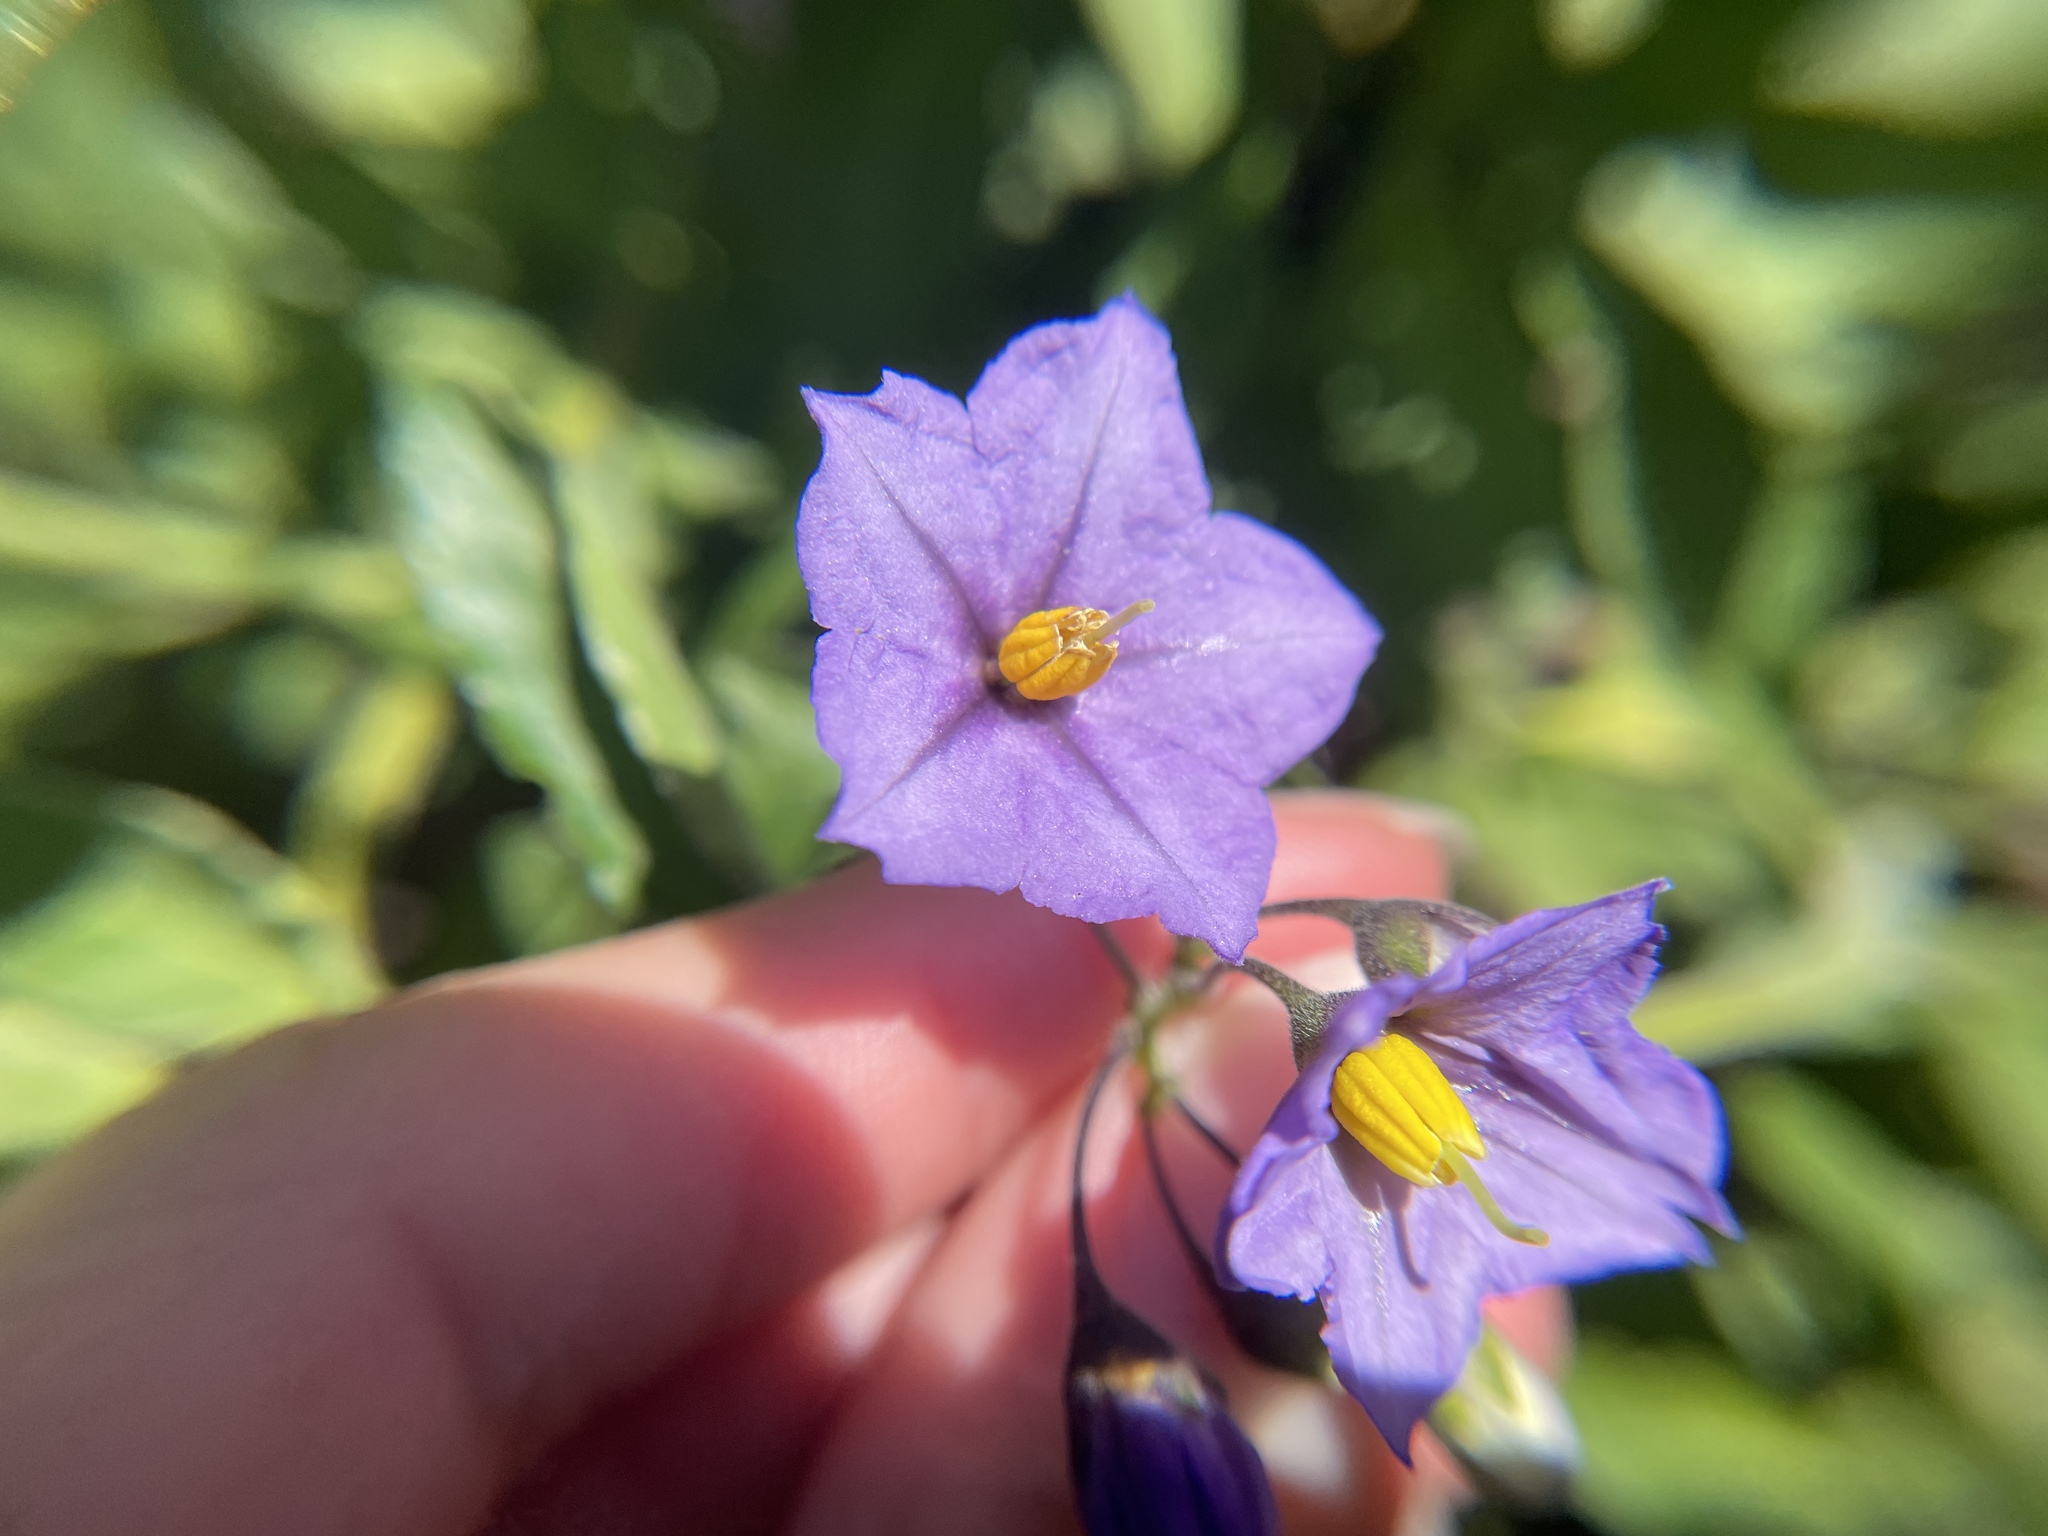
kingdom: Plantae
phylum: Tracheophyta
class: Magnoliopsida
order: Solanales
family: Solanaceae
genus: Solanum
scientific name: Solanum umbelliferum
